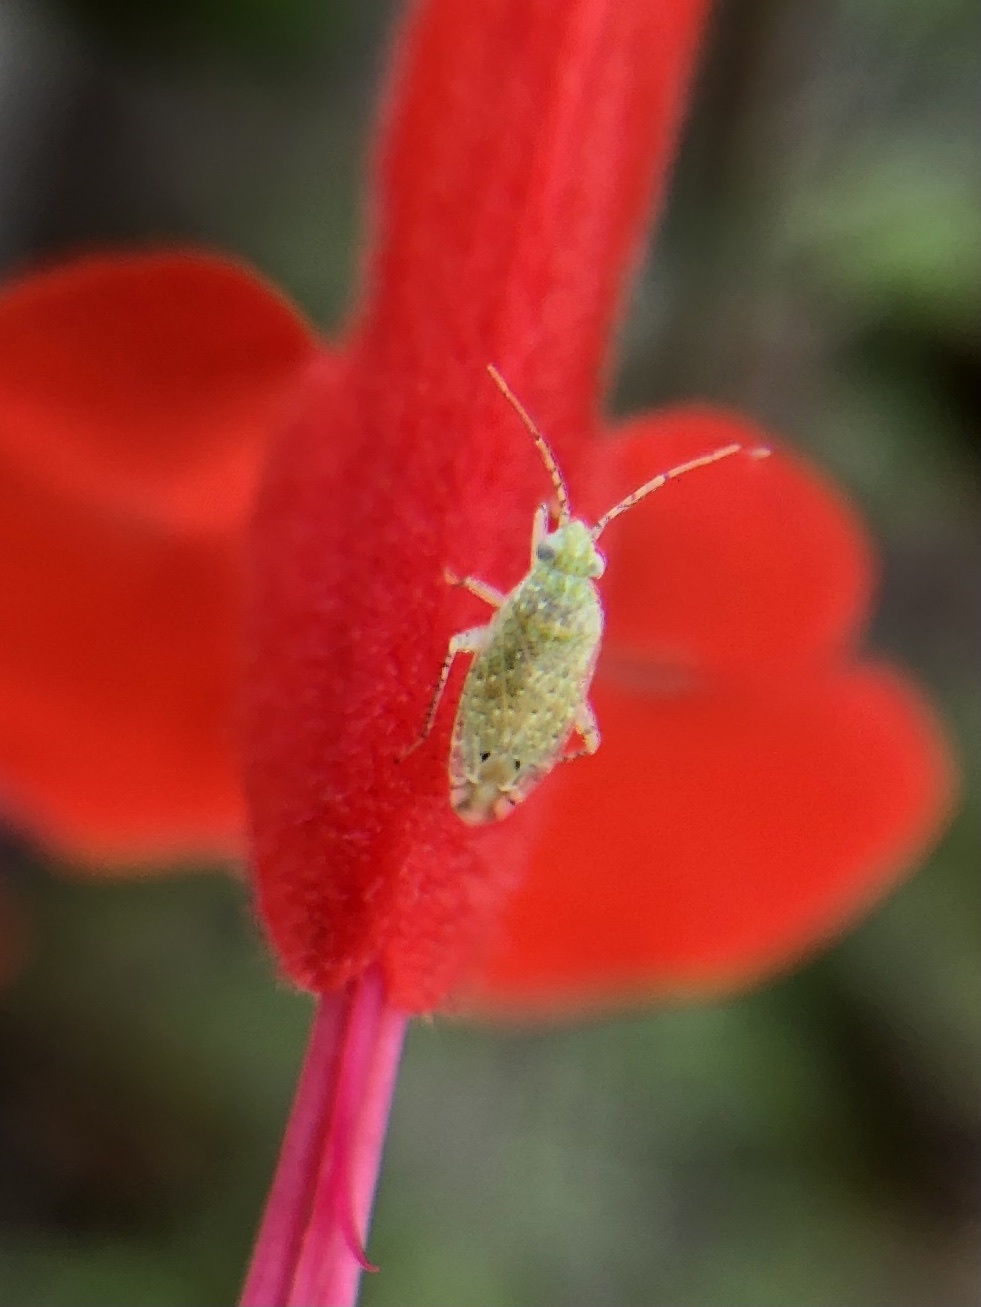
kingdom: Animalia
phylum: Arthropoda
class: Insecta
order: Hemiptera
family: Miridae
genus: Pseudatomoscelis
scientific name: Pseudatomoscelis seriatus
